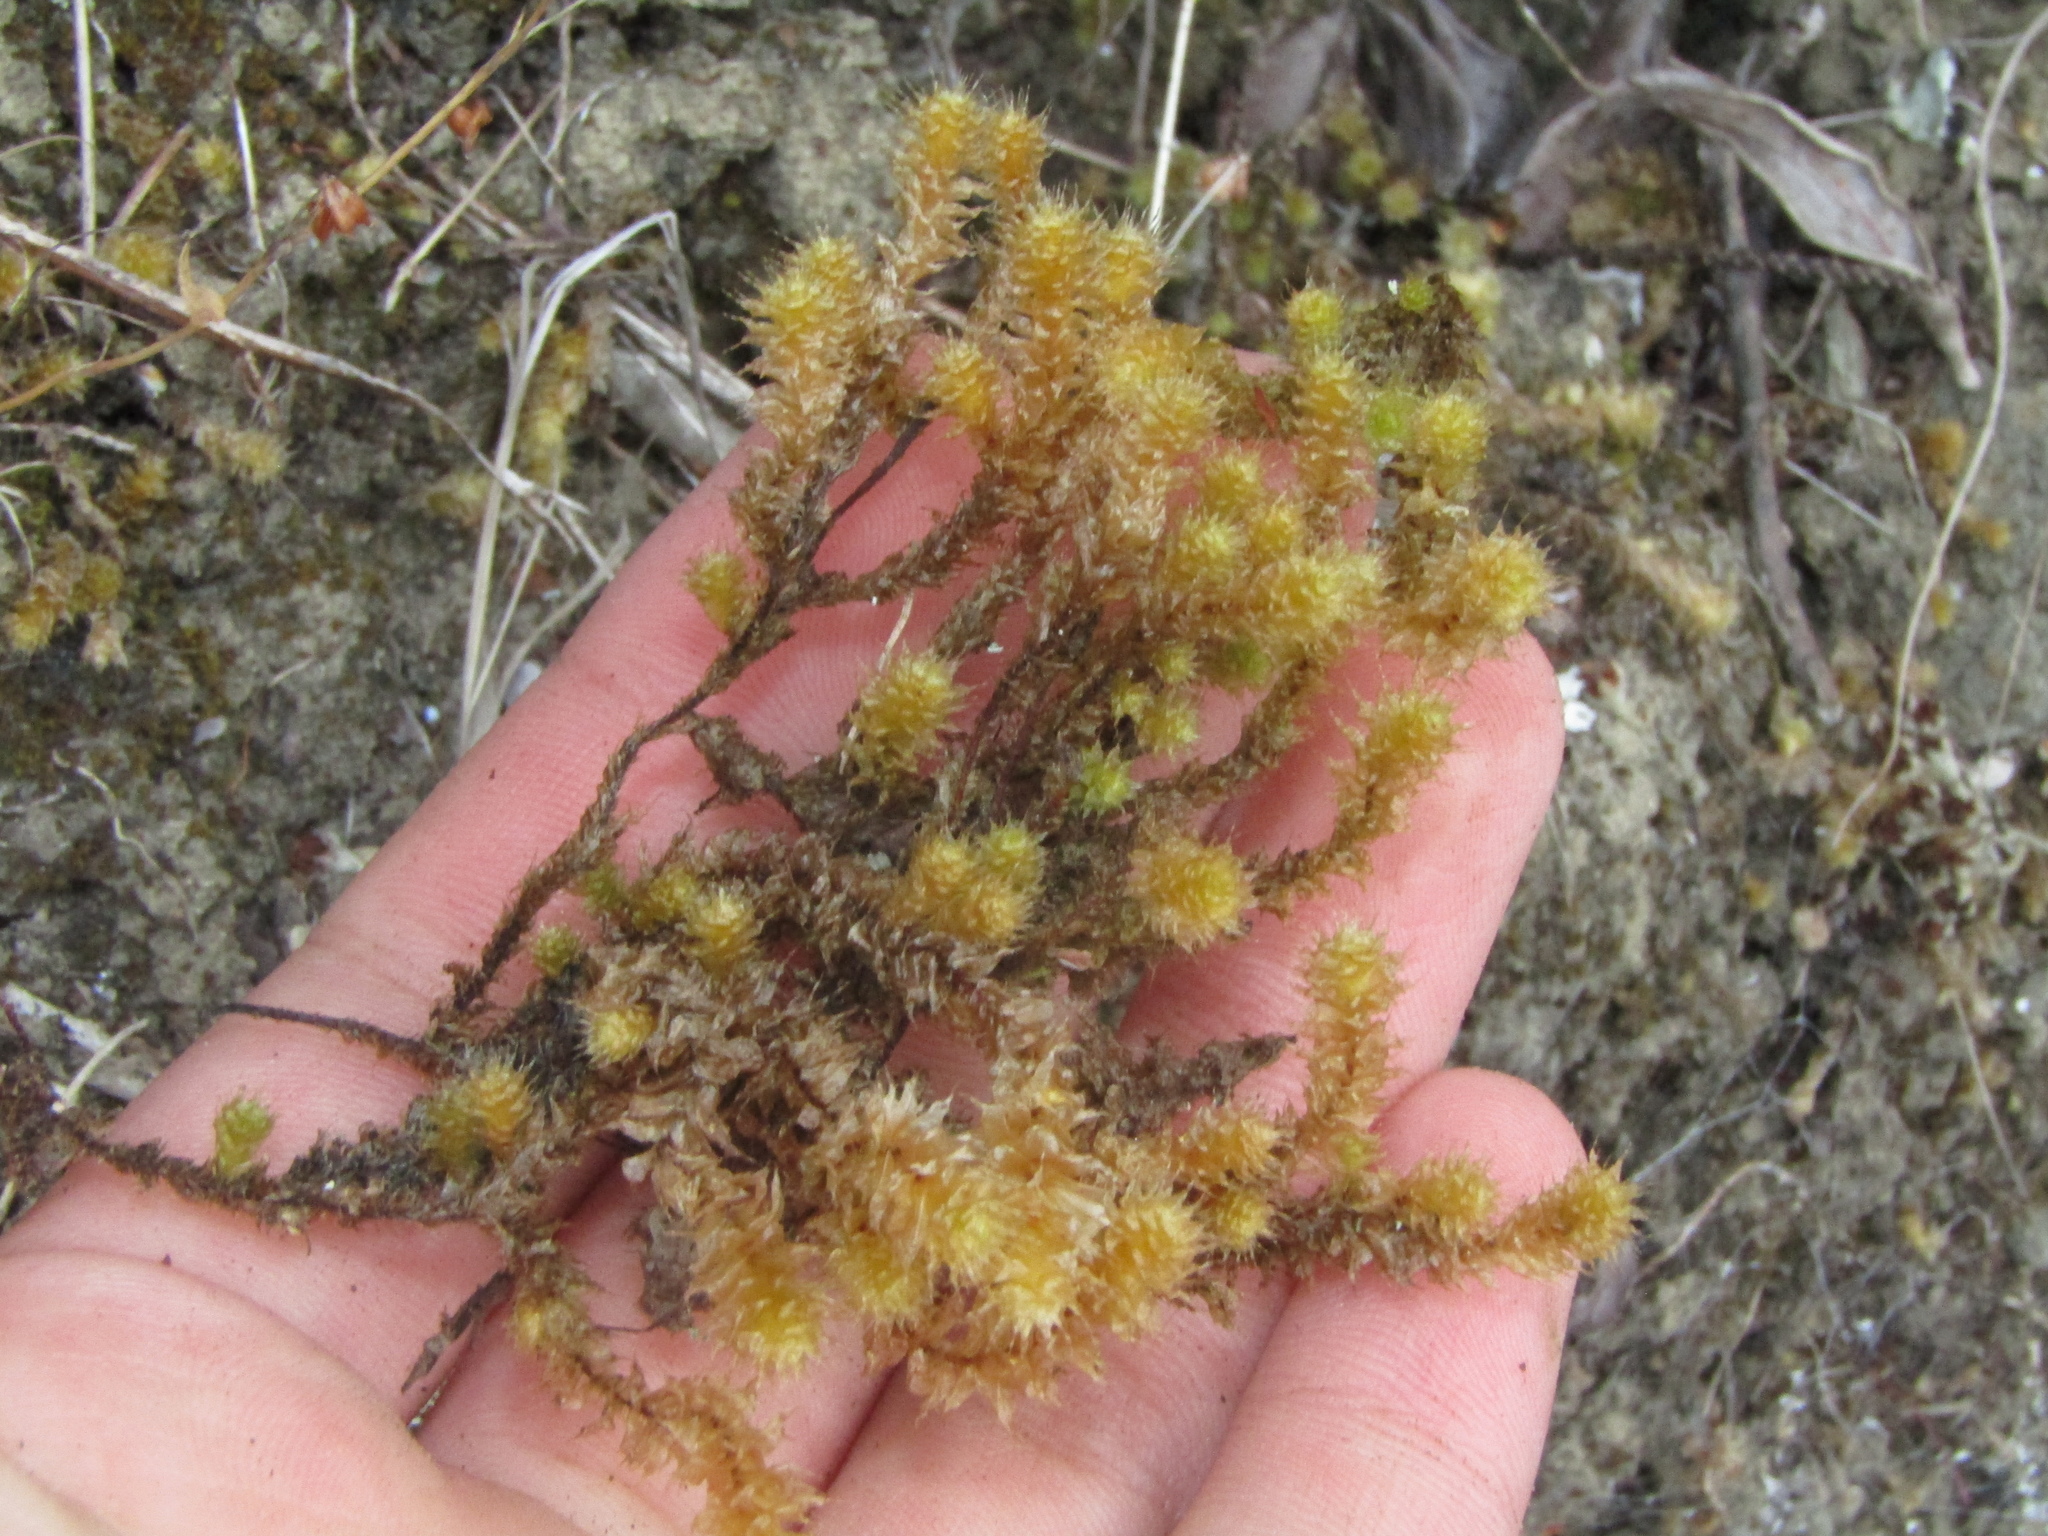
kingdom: Plantae
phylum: Bryophyta
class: Bryopsida
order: Ptychomniales
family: Ptychomniaceae
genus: Ptychomnion
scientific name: Ptychomnion aciculare
